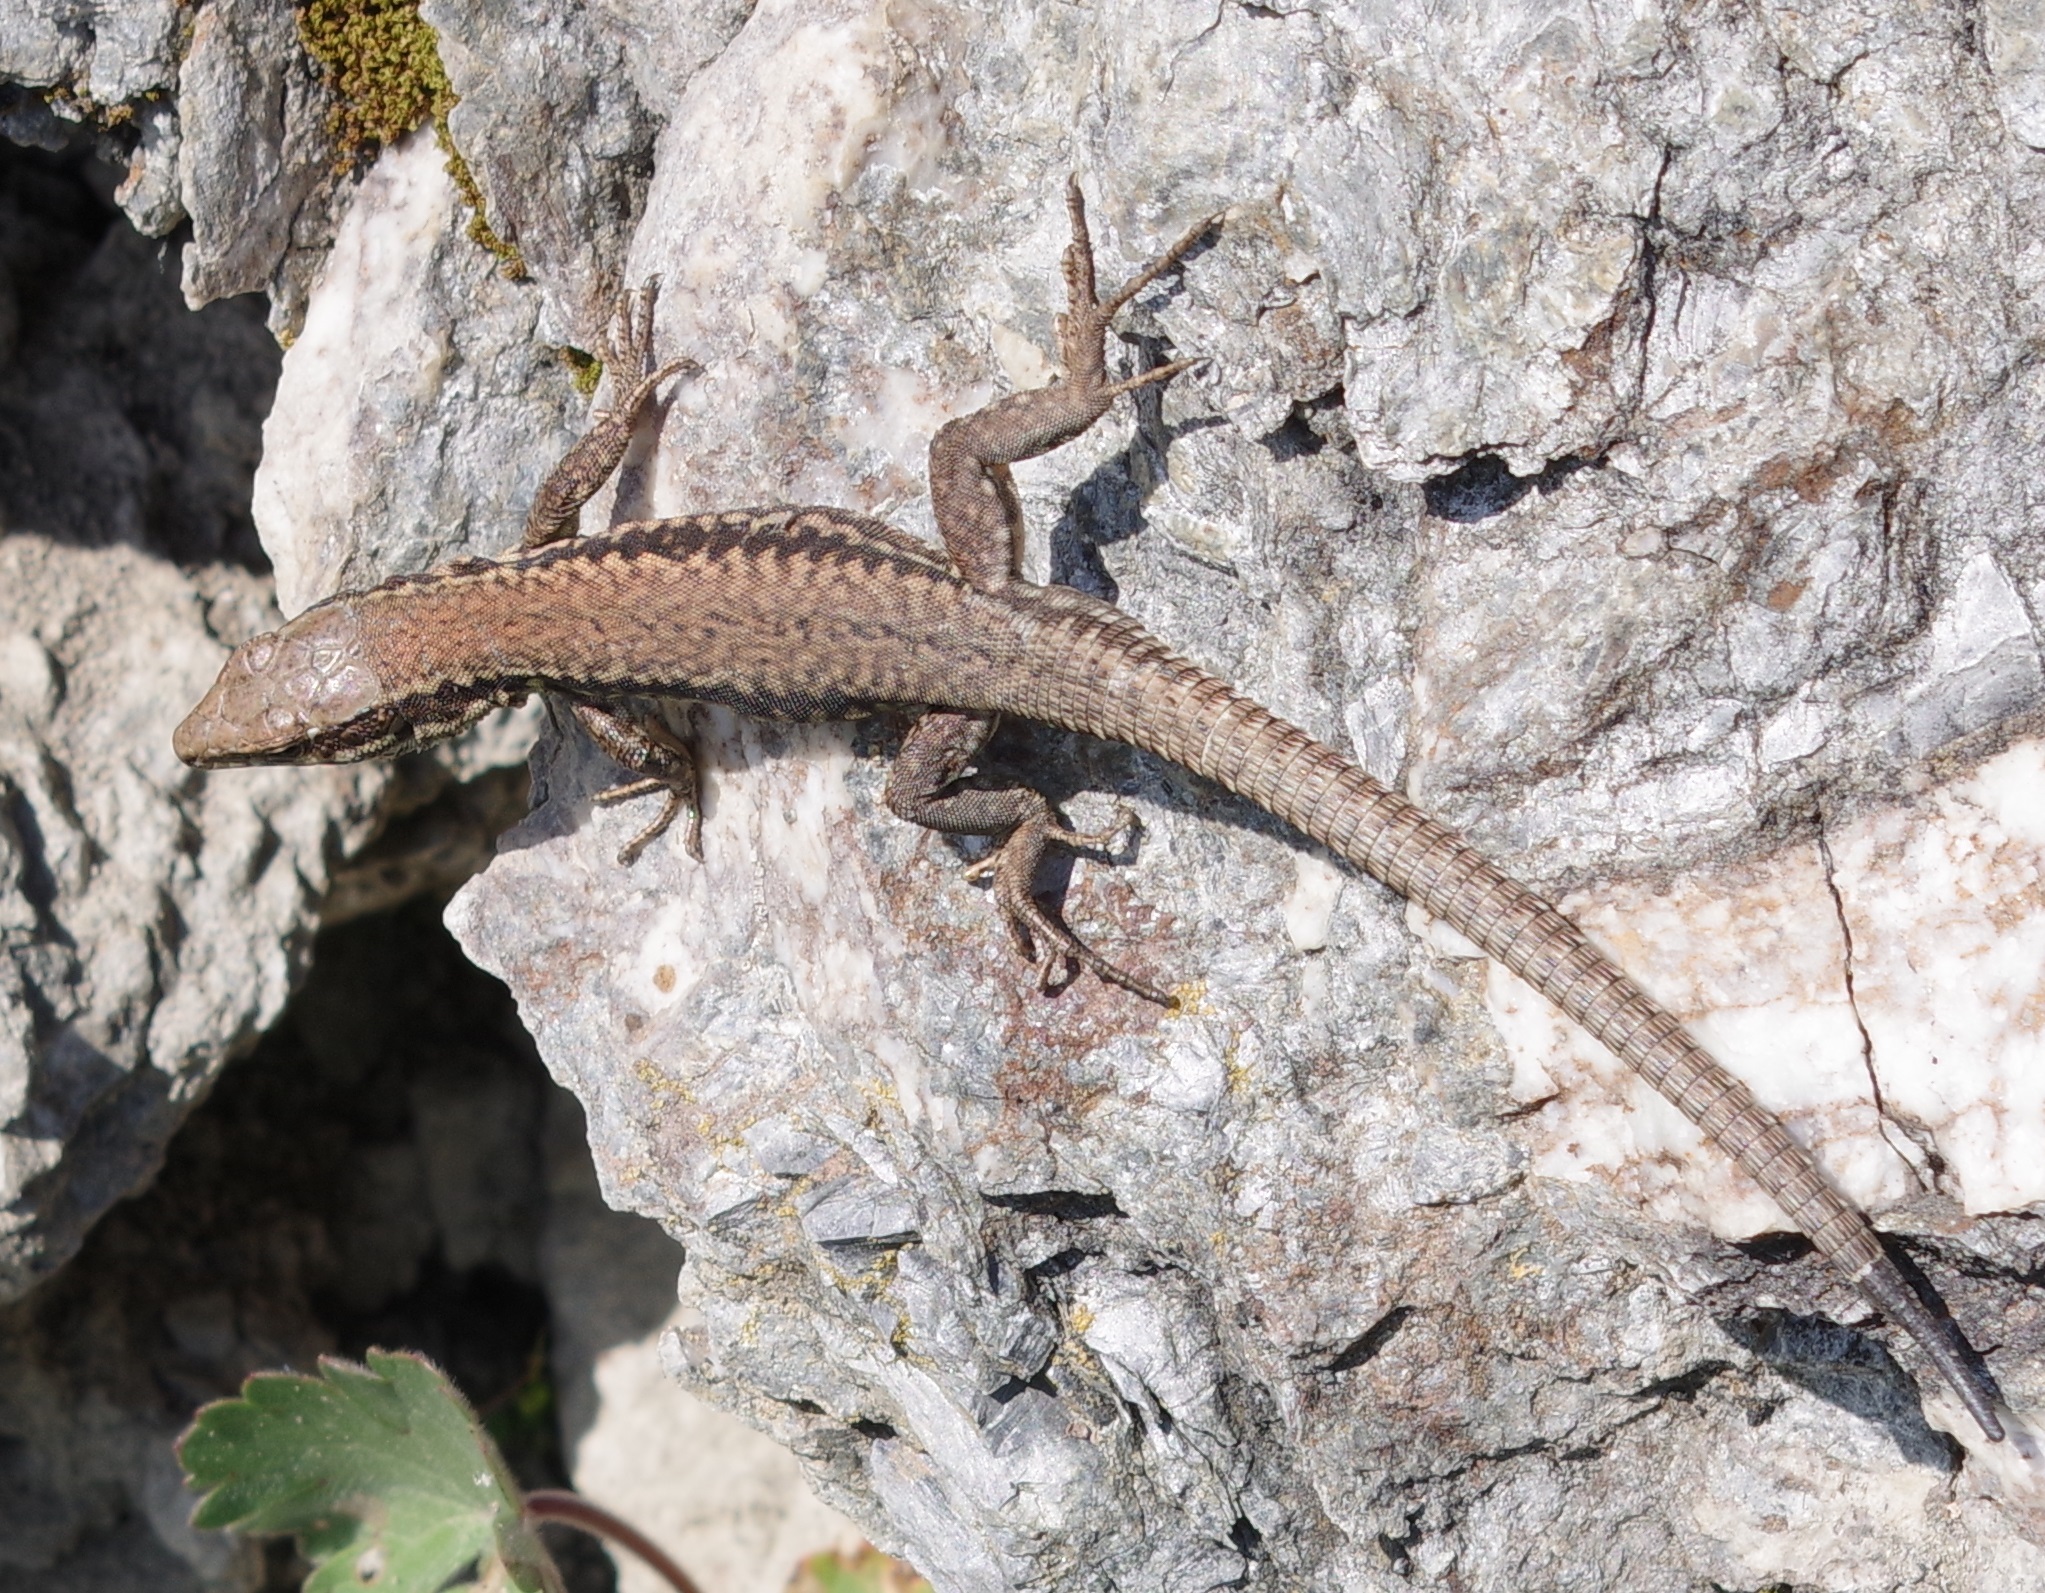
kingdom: Animalia
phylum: Chordata
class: Squamata
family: Lacertidae
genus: Podarcis
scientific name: Podarcis muralis
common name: Common wall lizard
